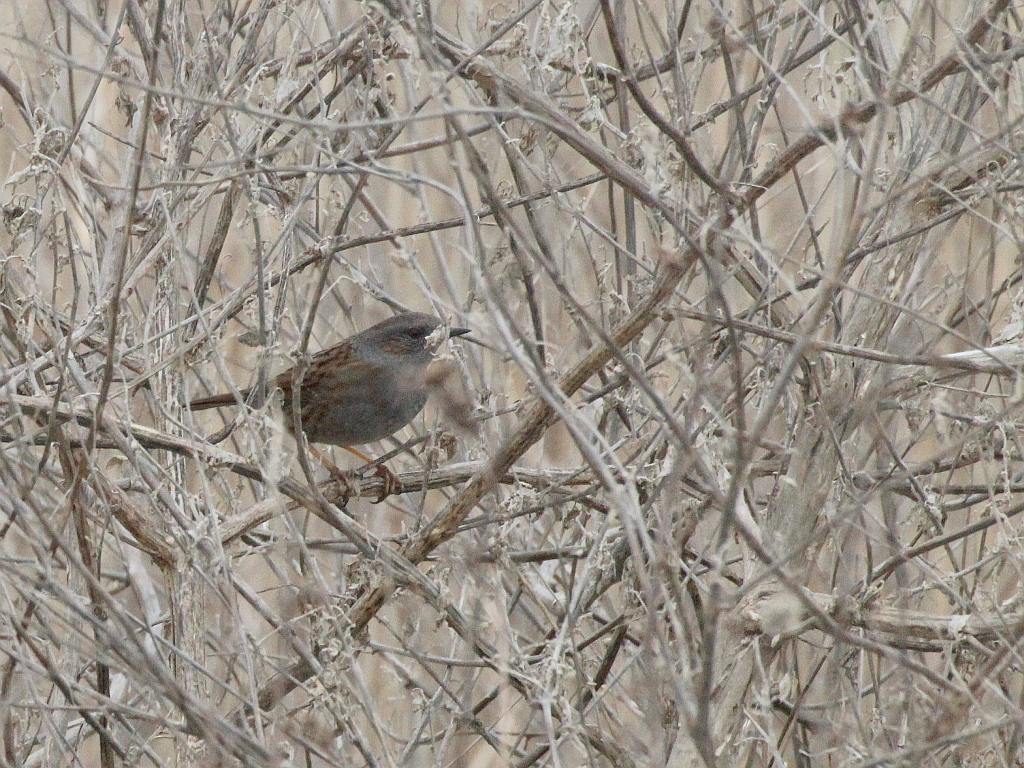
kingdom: Animalia
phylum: Chordata
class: Aves
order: Passeriformes
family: Prunellidae
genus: Prunella
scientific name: Prunella modularis
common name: Dunnock
